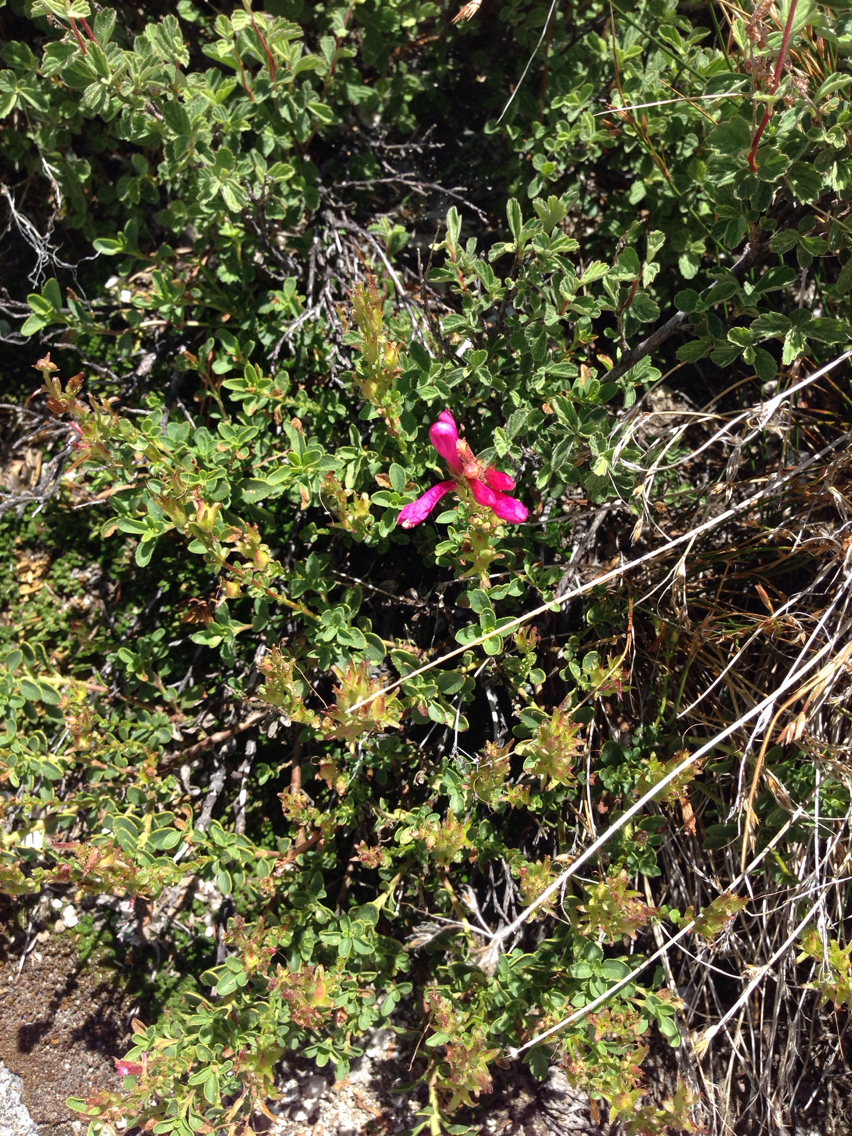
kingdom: Plantae
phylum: Tracheophyta
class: Magnoliopsida
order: Lamiales
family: Plantaginaceae
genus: Penstemon
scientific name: Penstemon newberryi
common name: Mountain-pride
